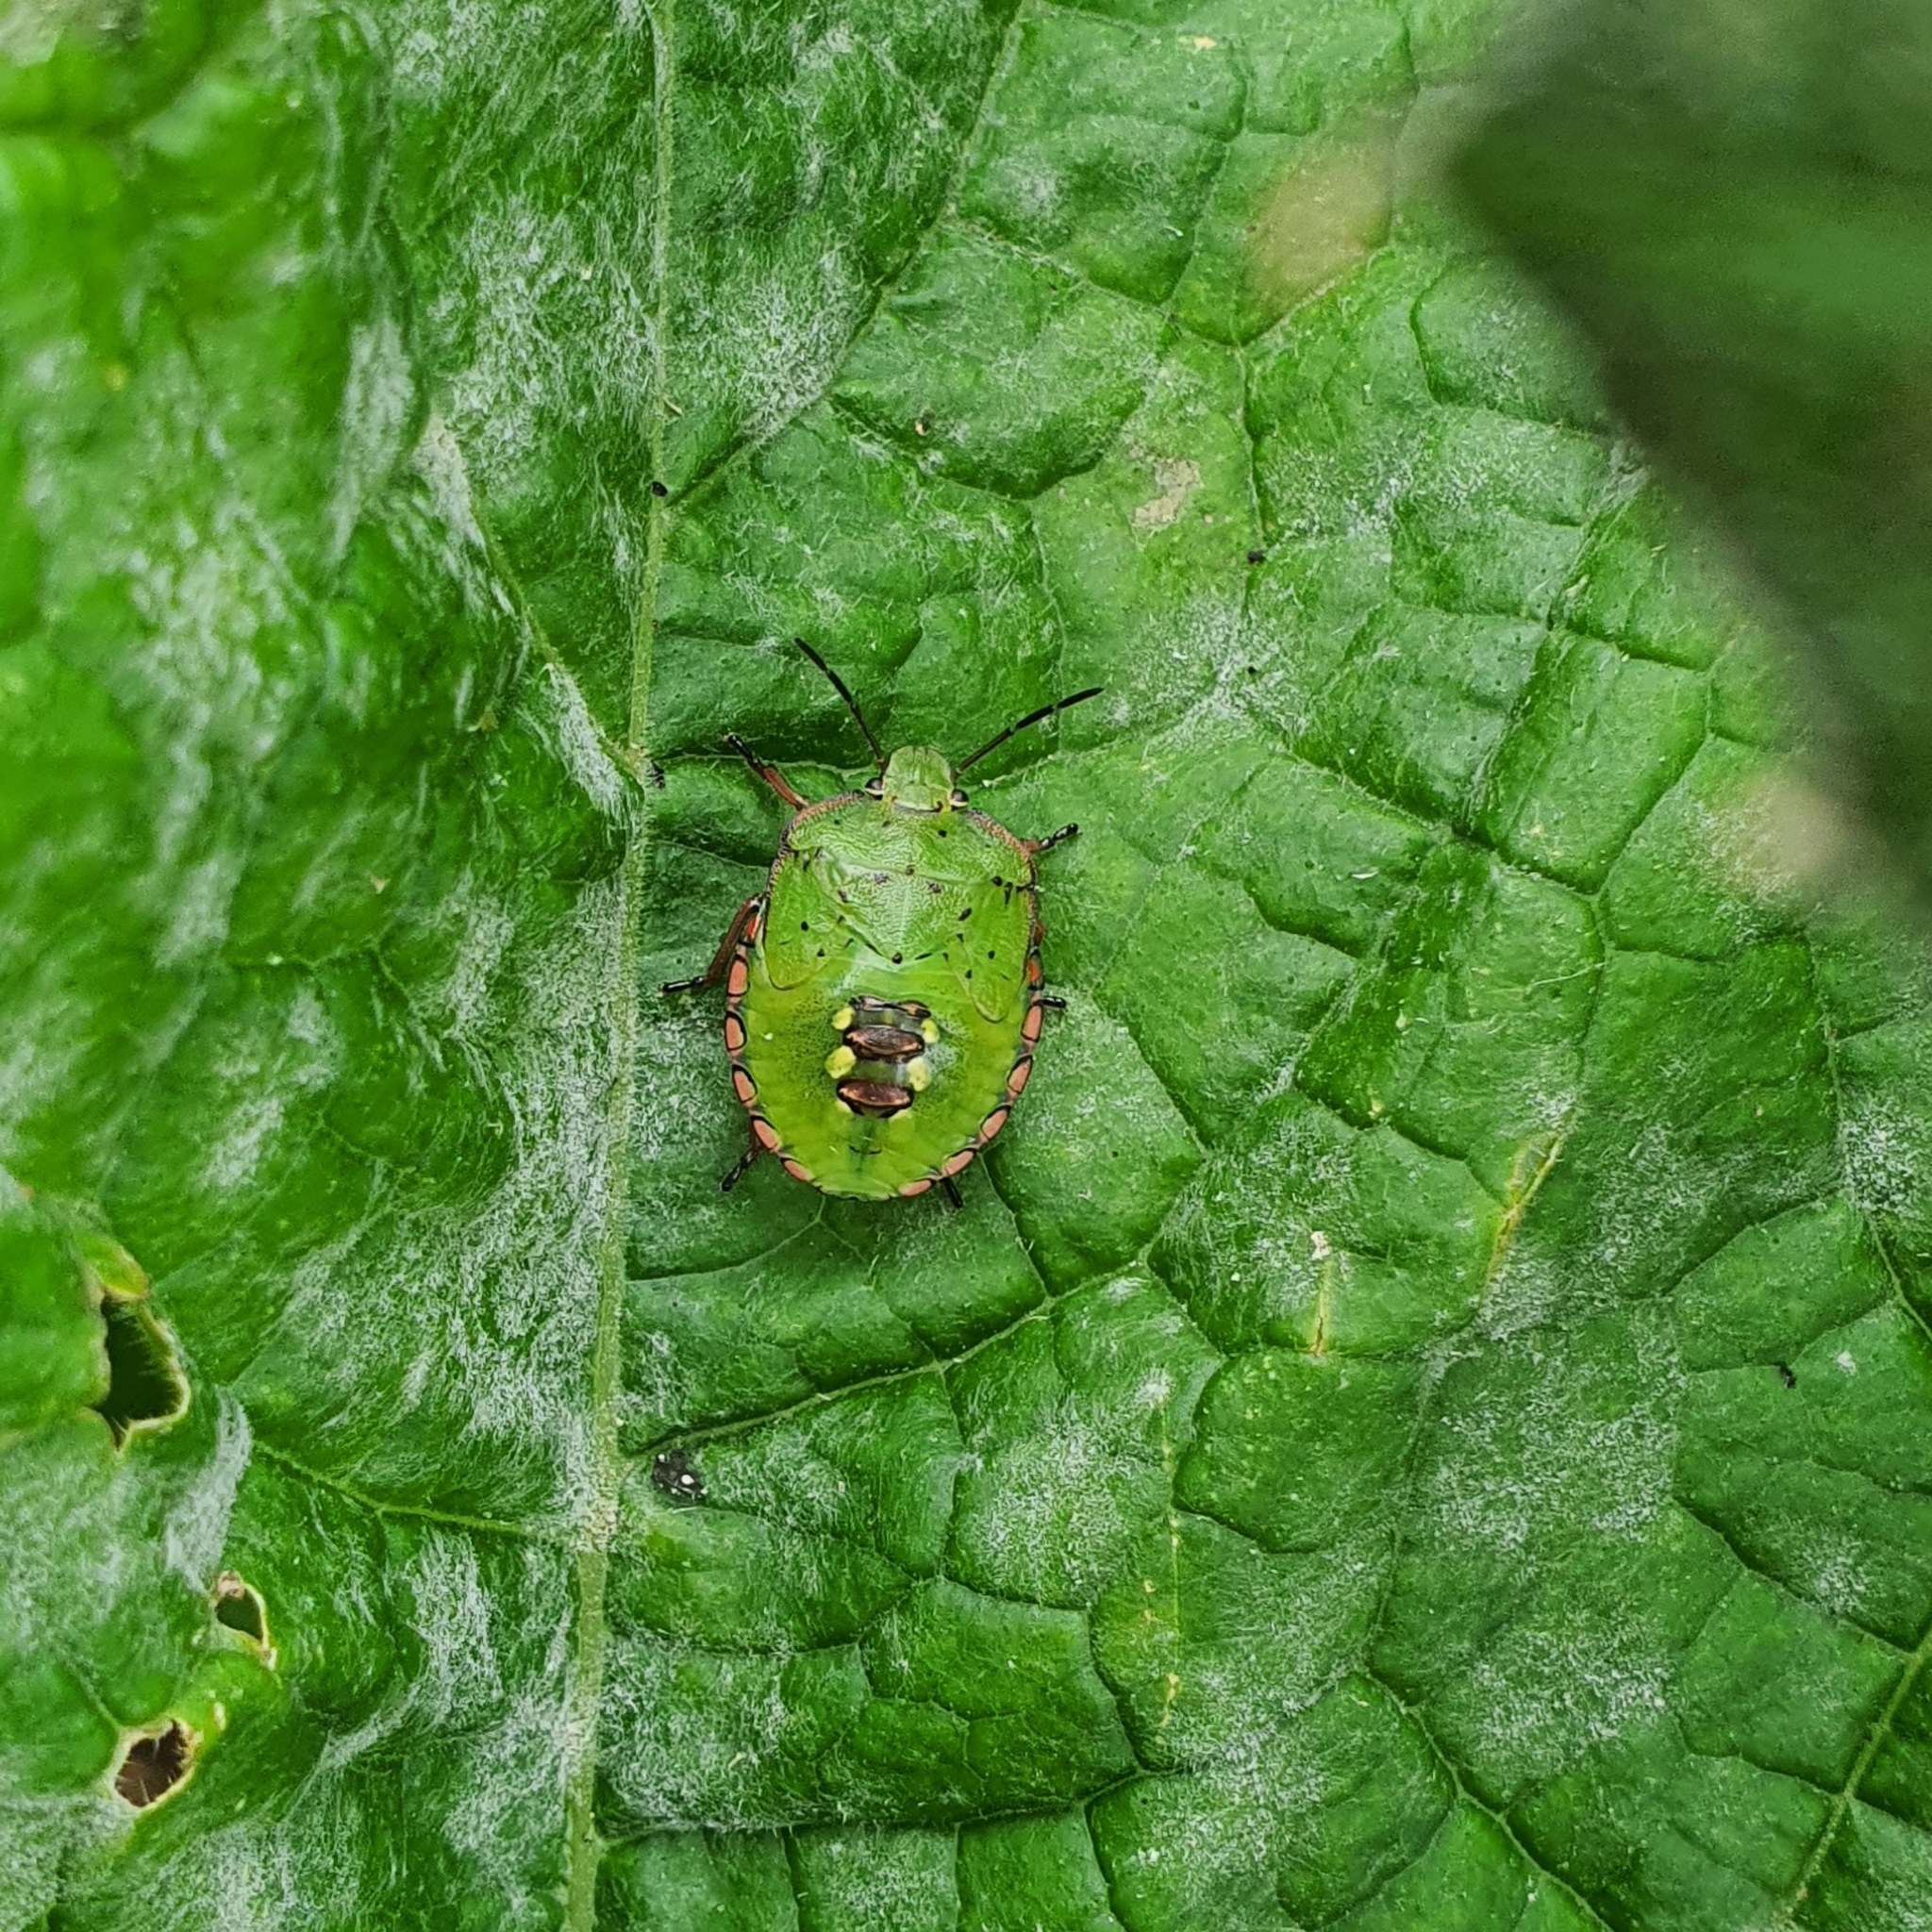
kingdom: Animalia
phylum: Arthropoda
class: Insecta
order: Hemiptera
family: Pentatomidae
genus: Nezara
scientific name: Nezara viridula
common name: Southern green stink bug
